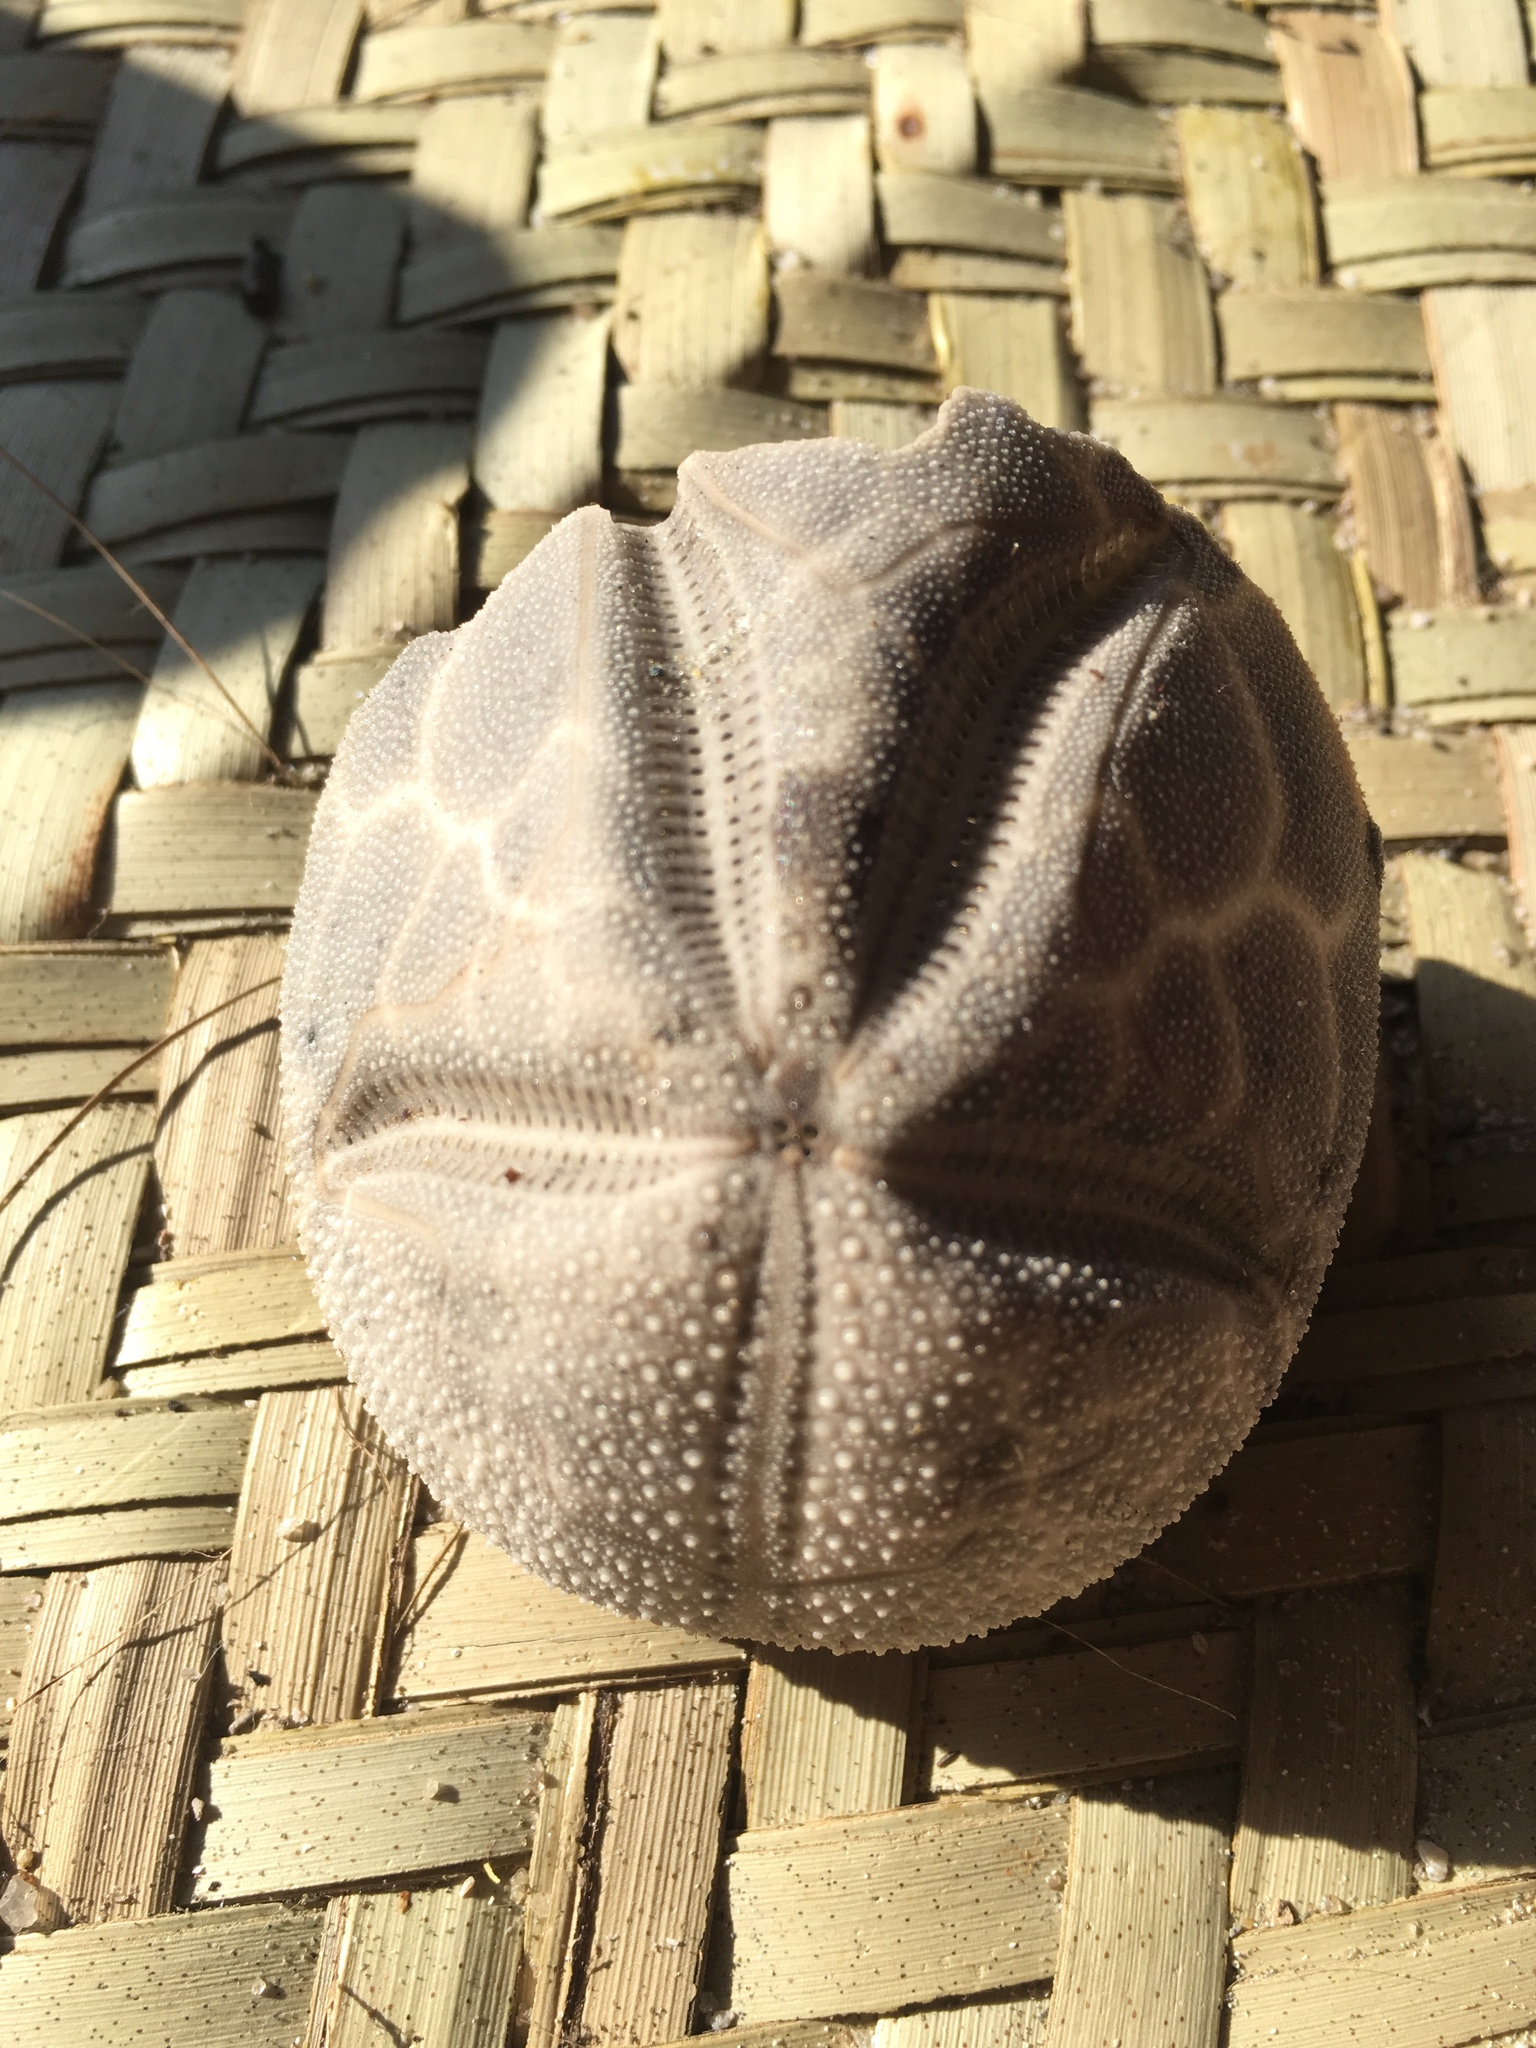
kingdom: Animalia
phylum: Echinodermata
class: Echinoidea
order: Spatangoida
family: Brissidae
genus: Brissus
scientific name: Brissus latecarinatus
